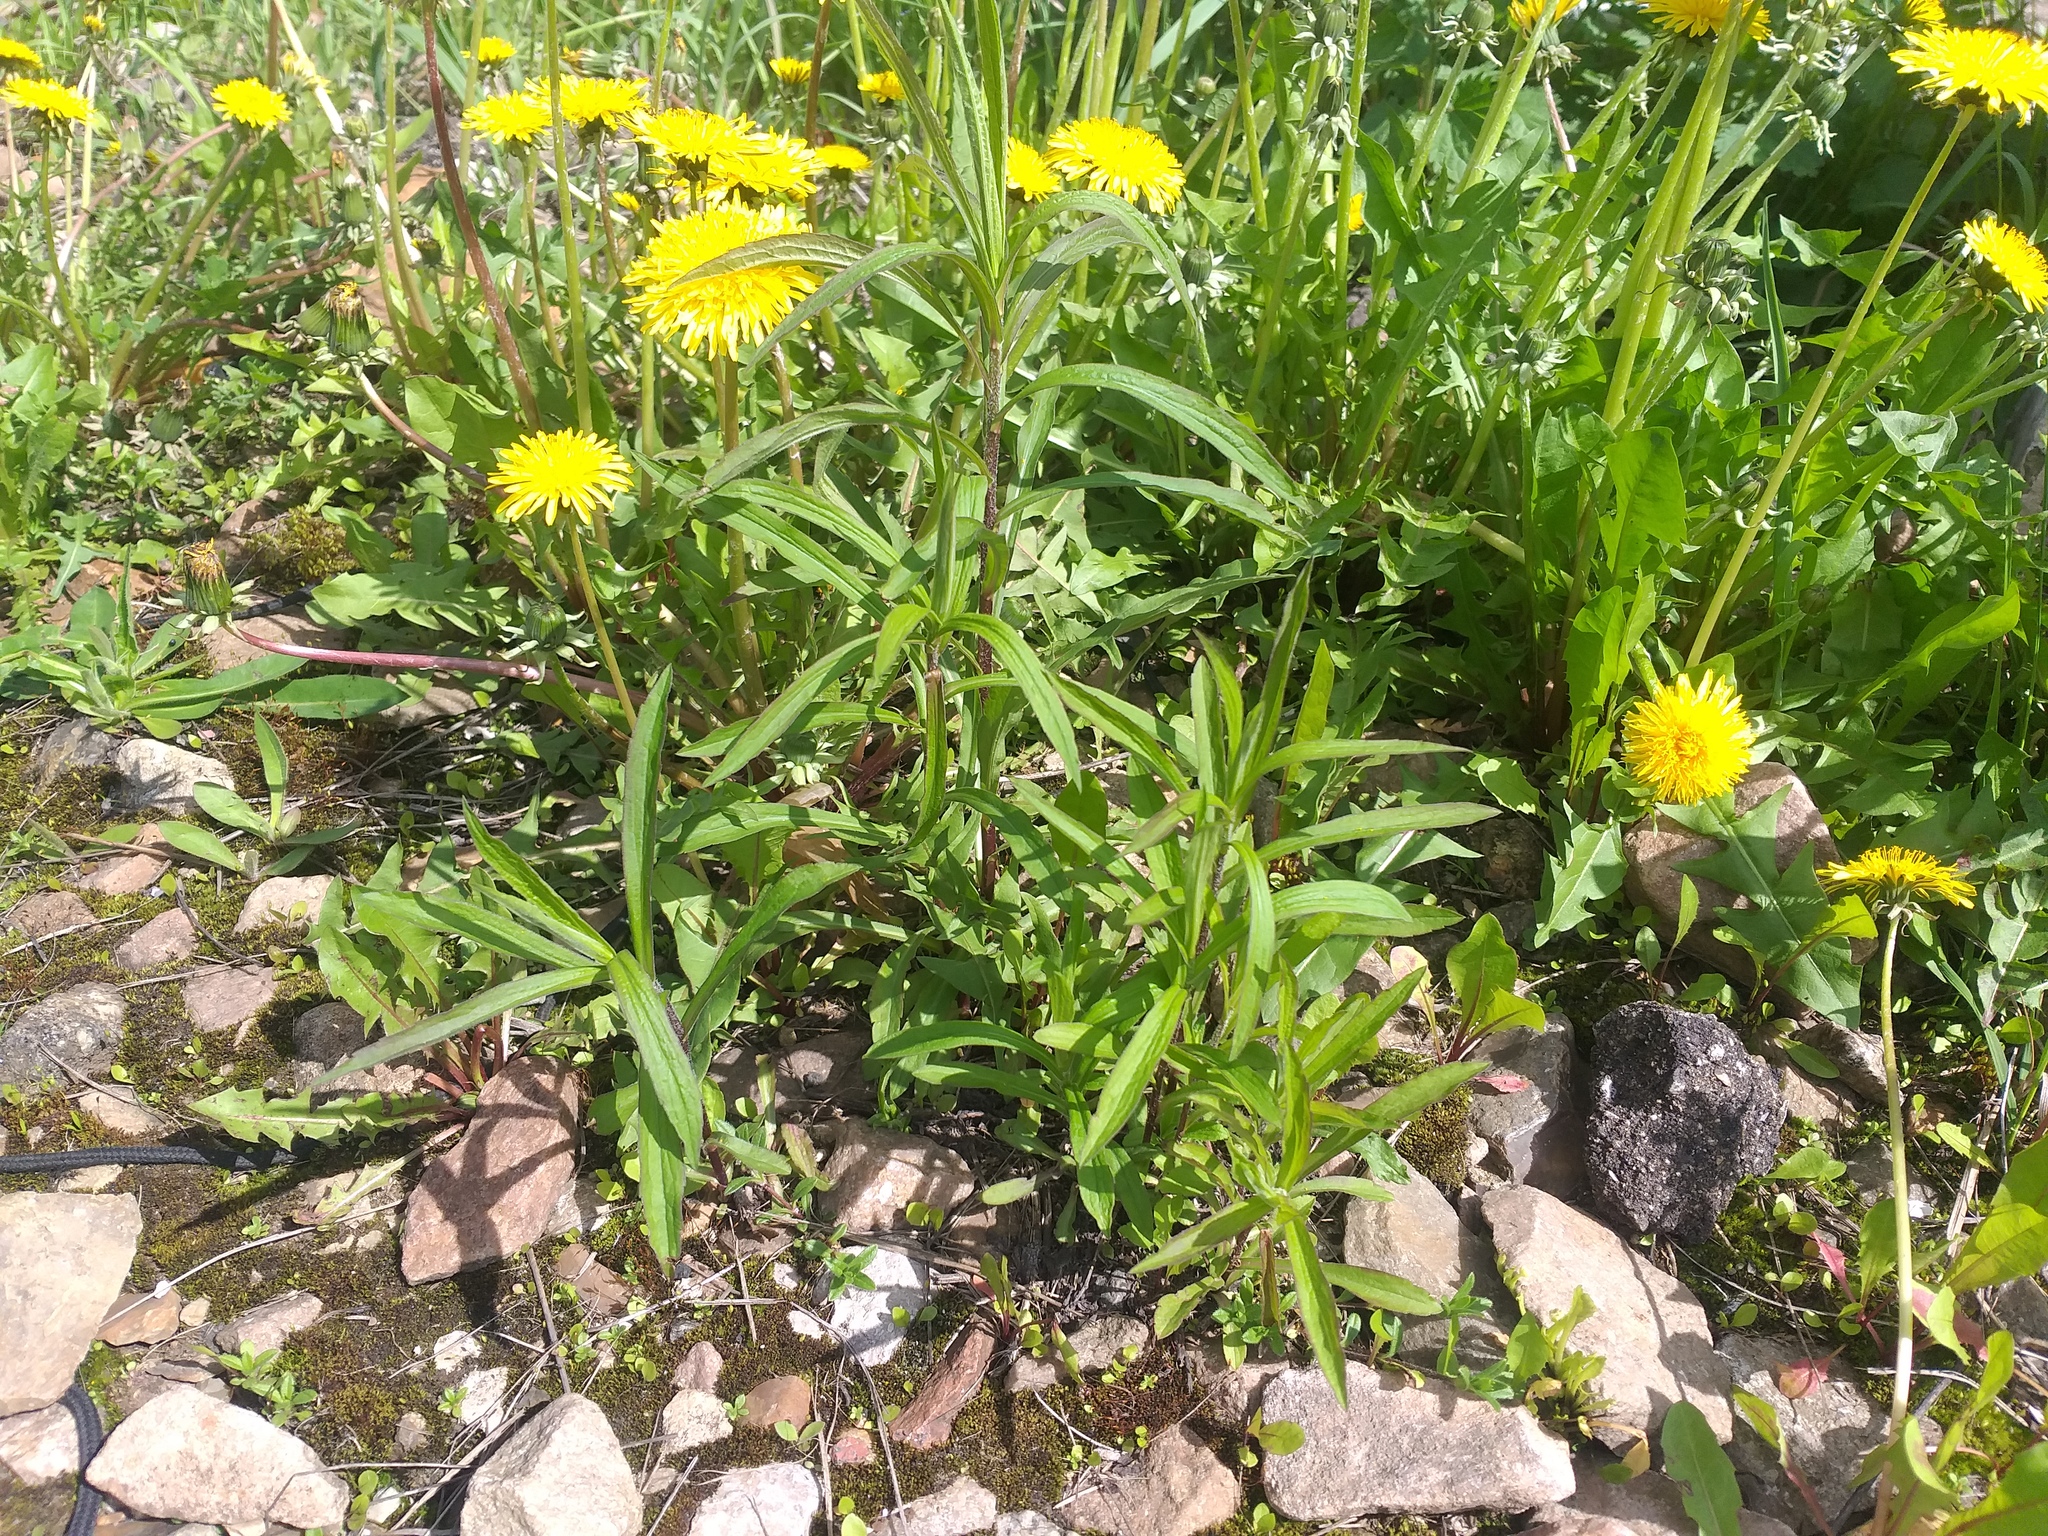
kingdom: Plantae
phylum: Tracheophyta
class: Magnoliopsida
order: Asterales
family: Asteraceae
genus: Solidago
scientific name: Solidago canadensis
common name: Canada goldenrod
